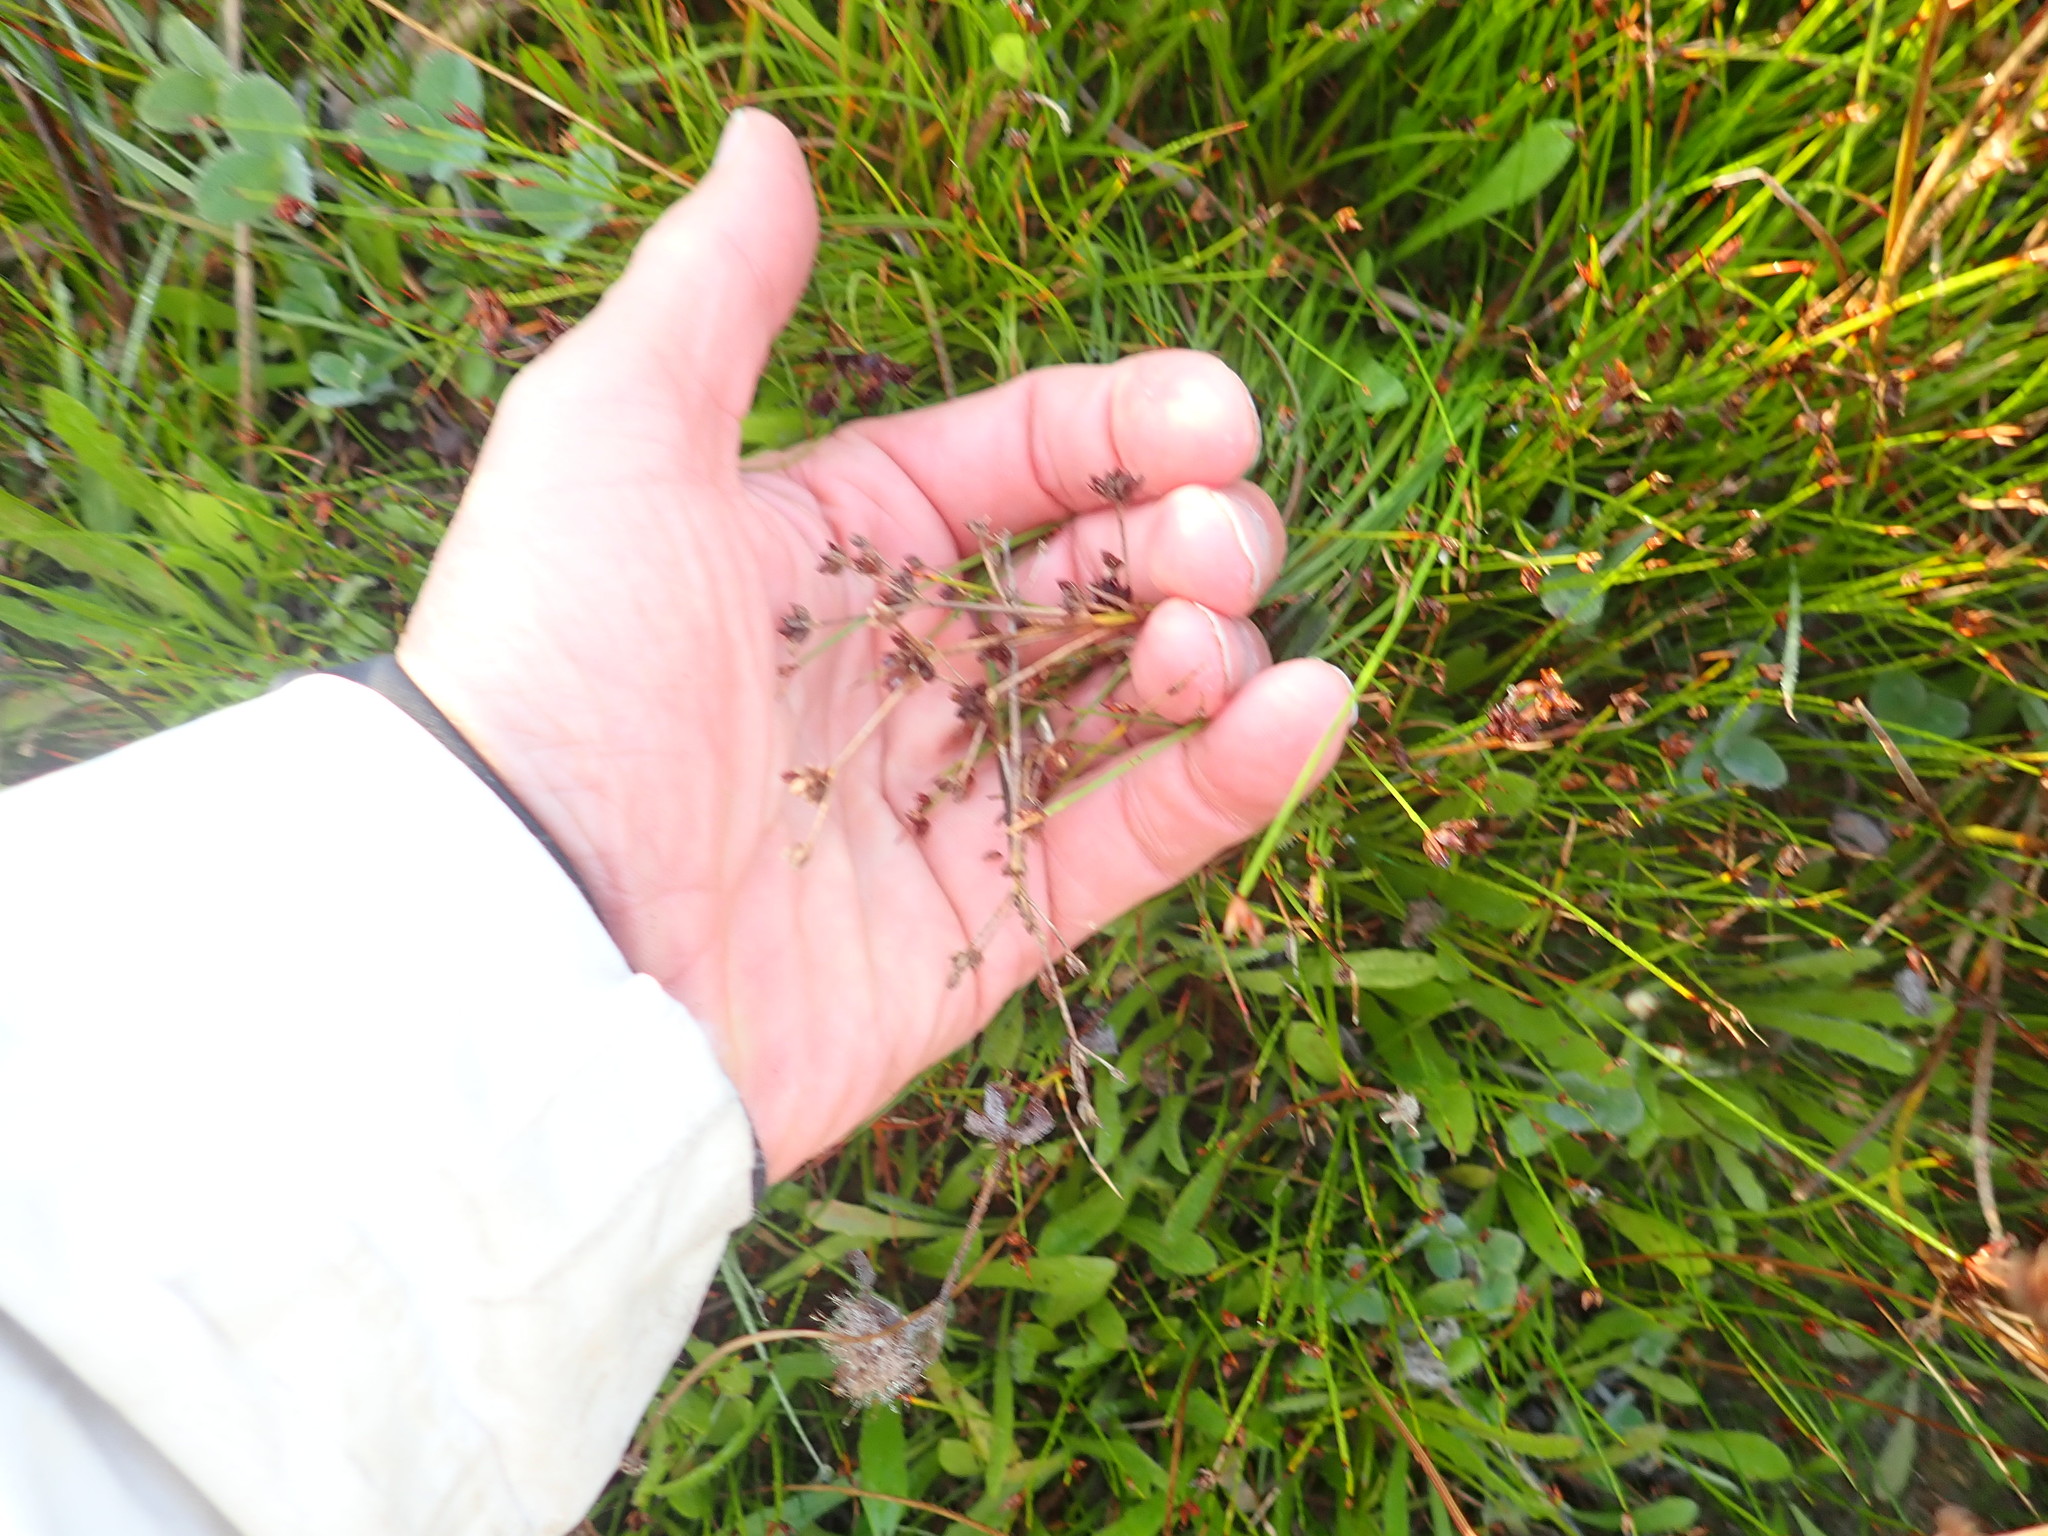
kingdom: Plantae
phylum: Tracheophyta
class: Liliopsida
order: Poales
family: Juncaceae
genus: Juncus
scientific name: Juncus articulatus
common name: Jointed rush
